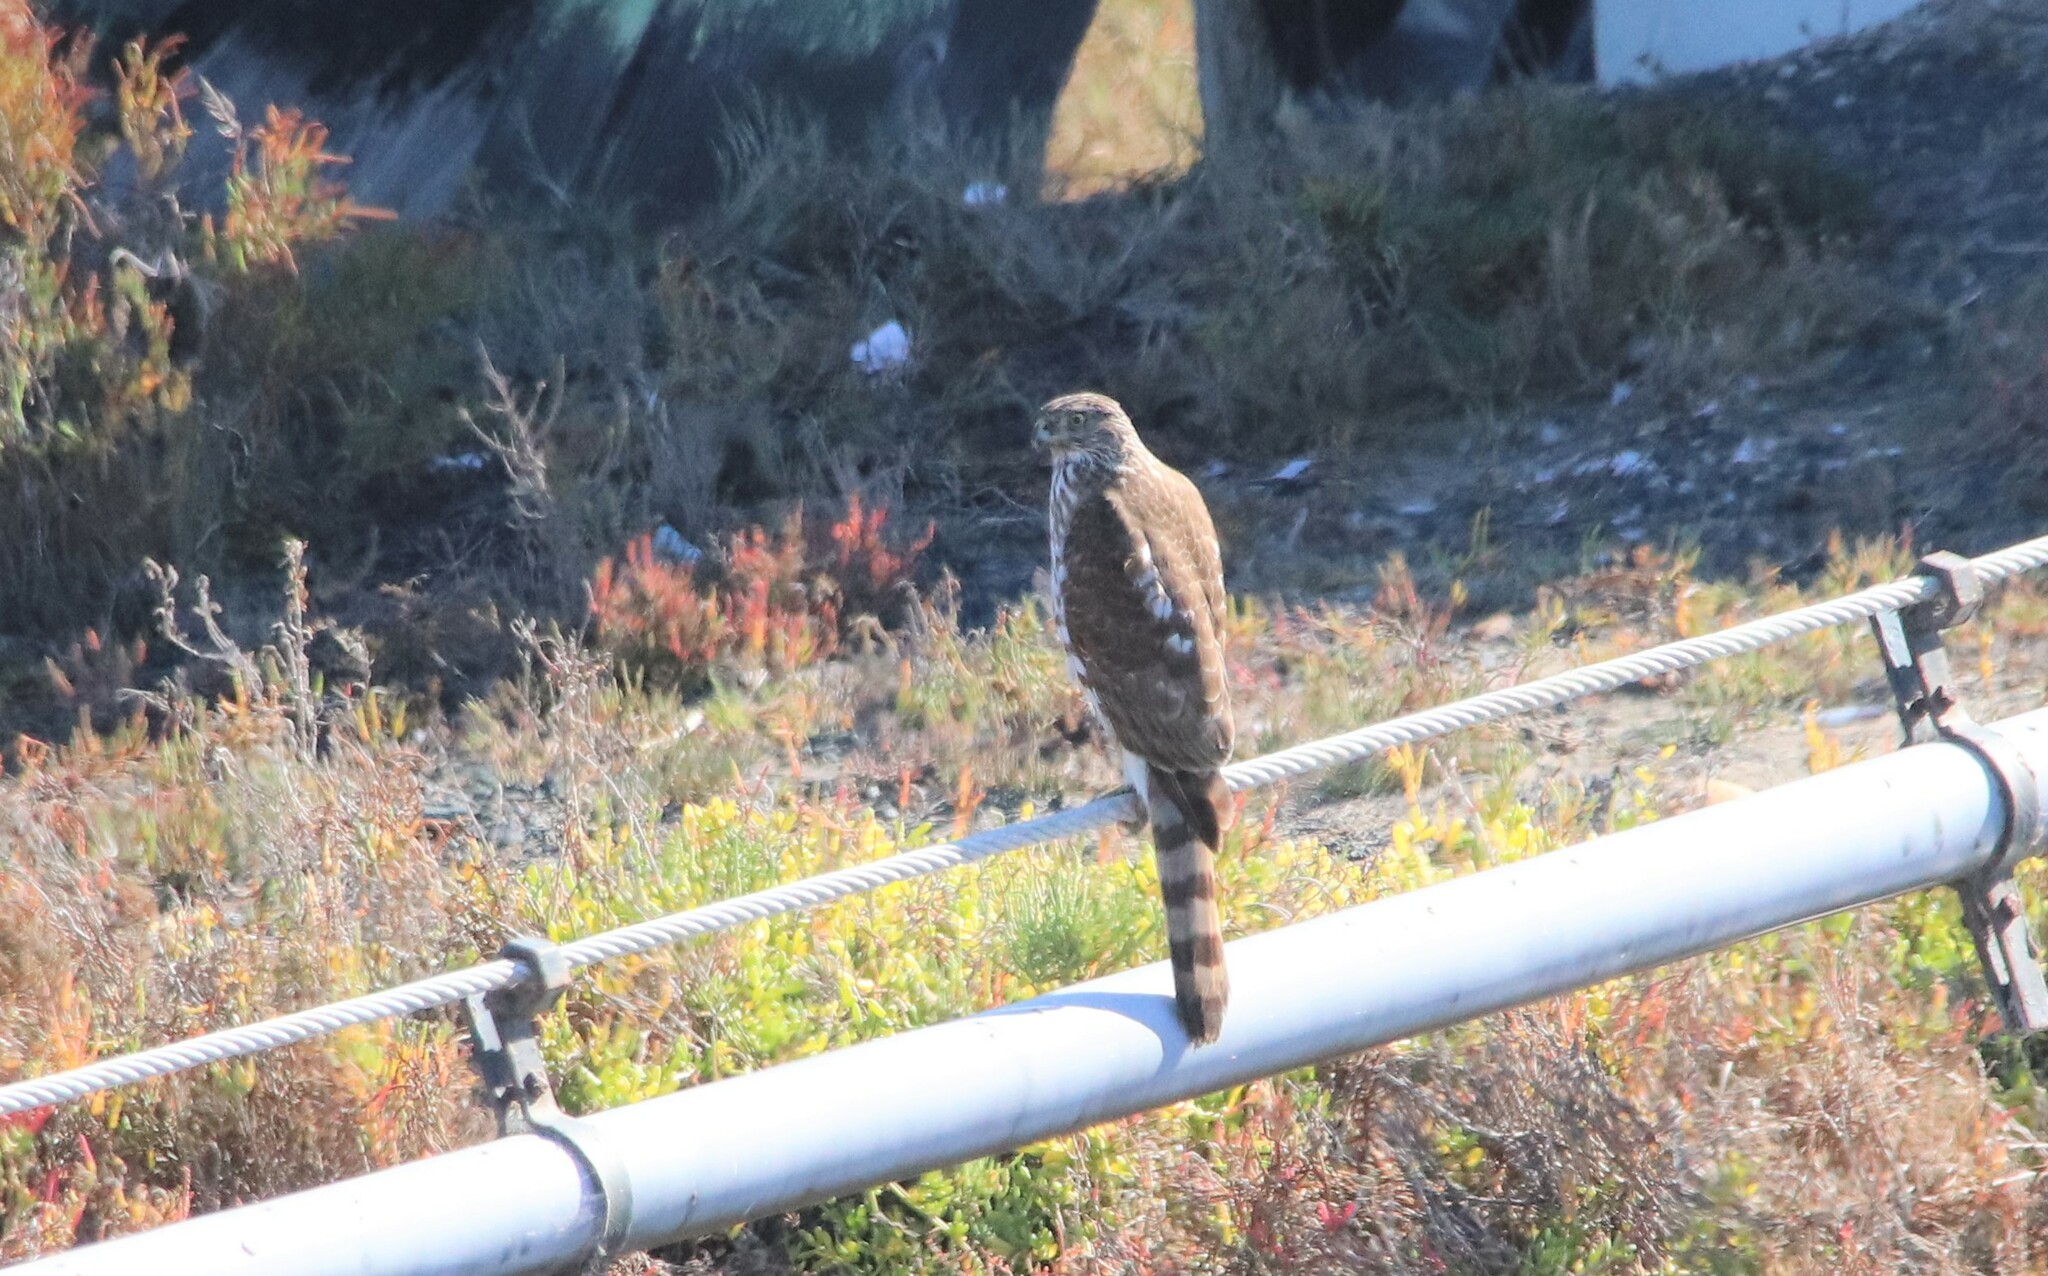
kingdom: Animalia
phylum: Chordata
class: Aves
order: Accipitriformes
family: Accipitridae
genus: Accipiter
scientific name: Accipiter cooperii
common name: Cooper's hawk
